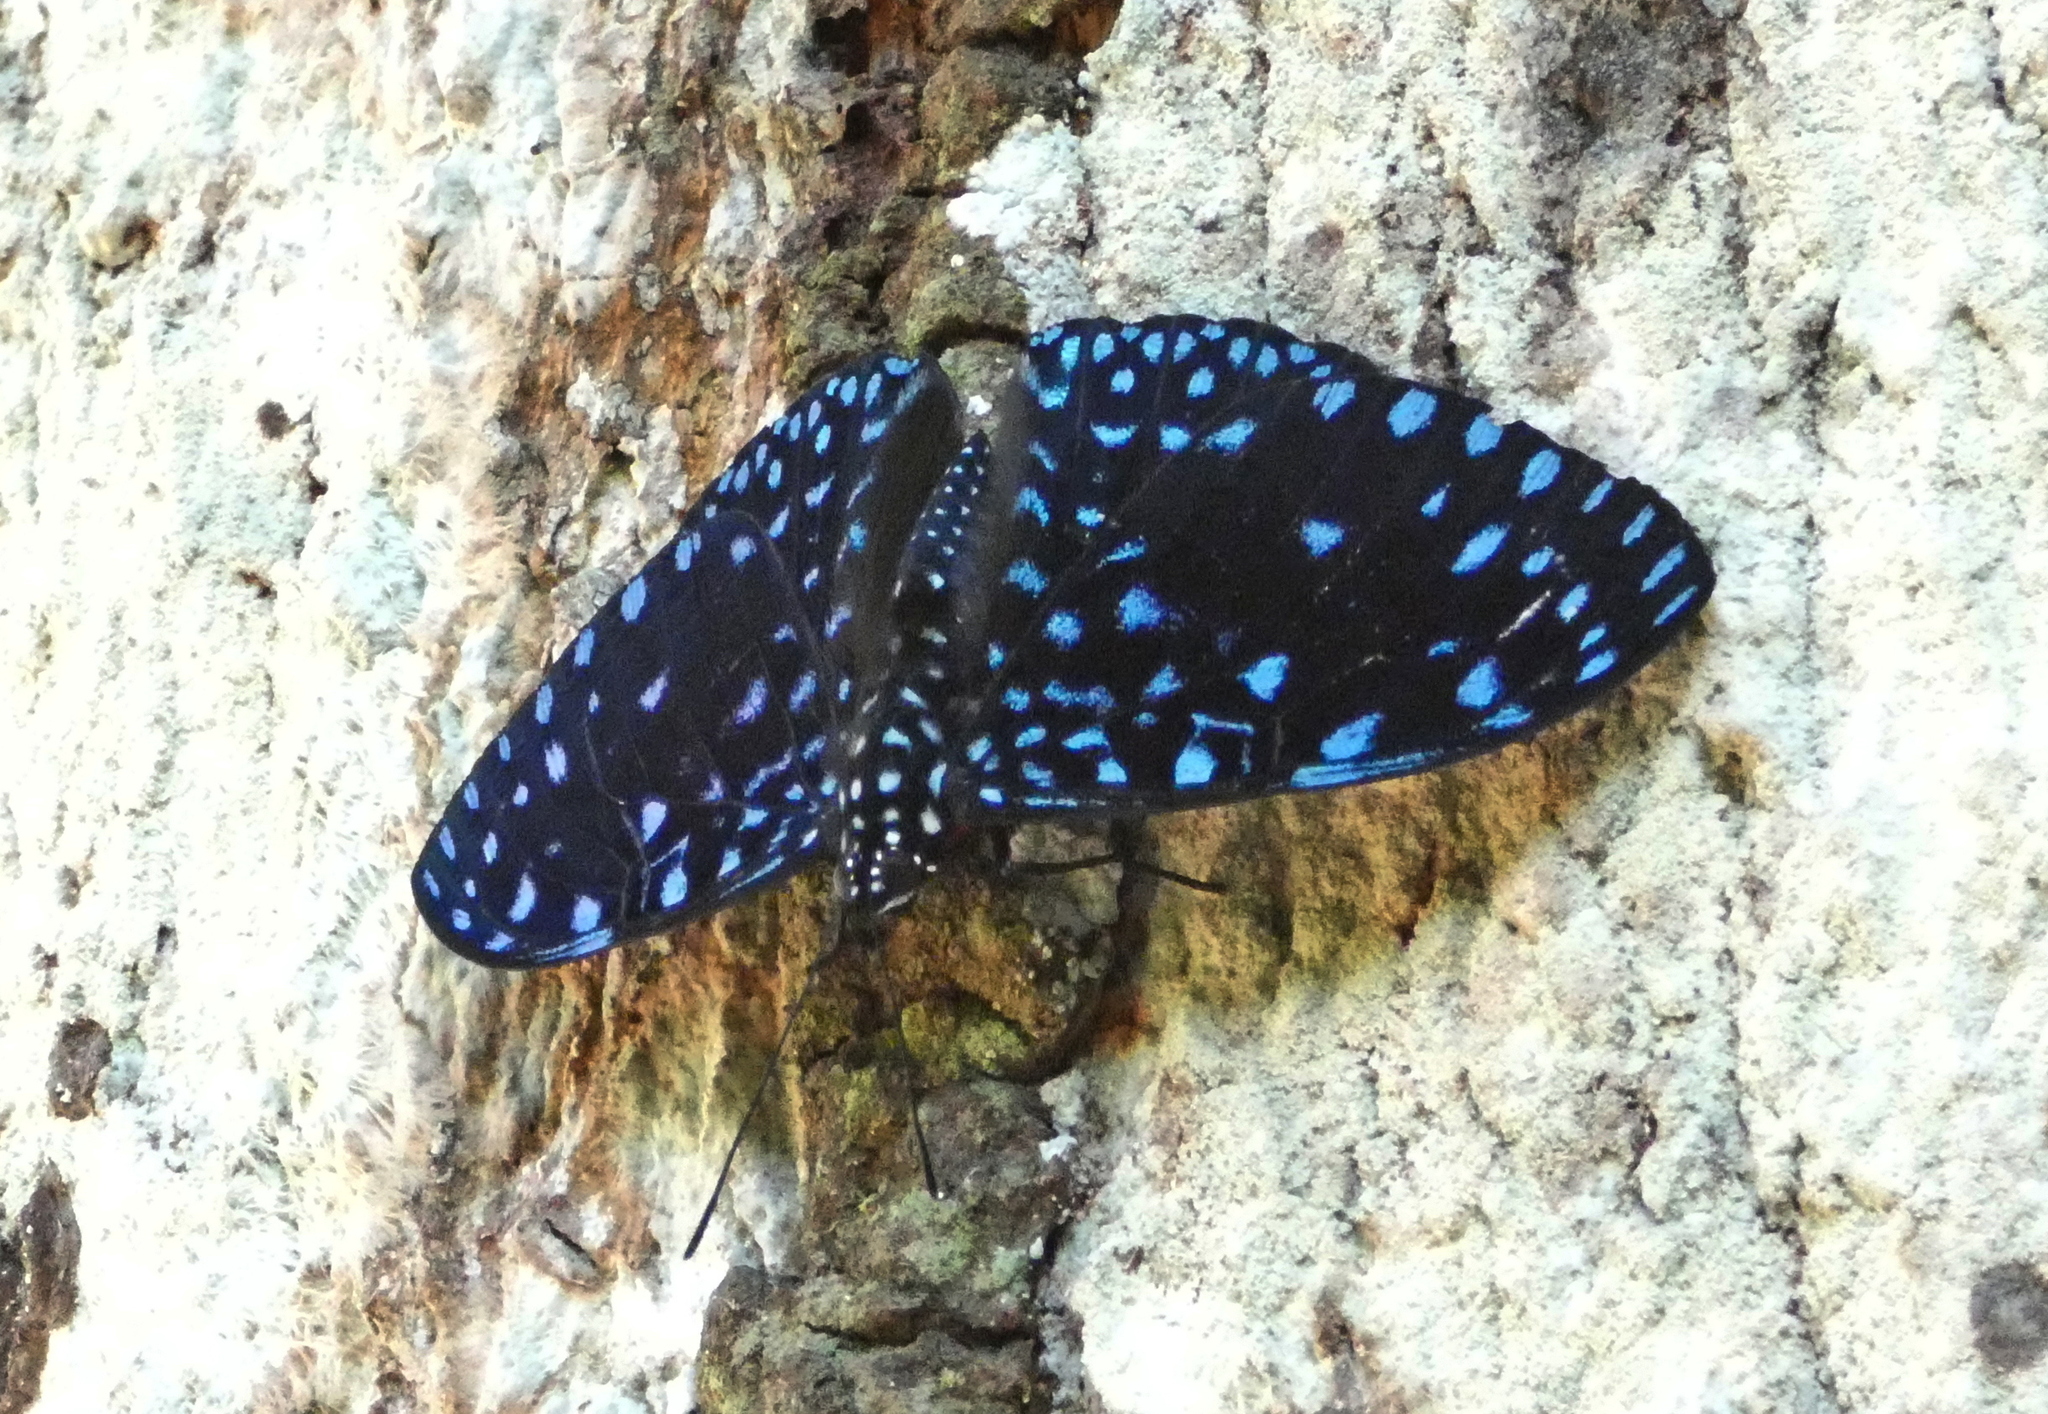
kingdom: Animalia
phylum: Arthropoda
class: Insecta
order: Lepidoptera
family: Nymphalidae
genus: Hamadryas
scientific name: Hamadryas laodamia
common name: Starry night cracker
